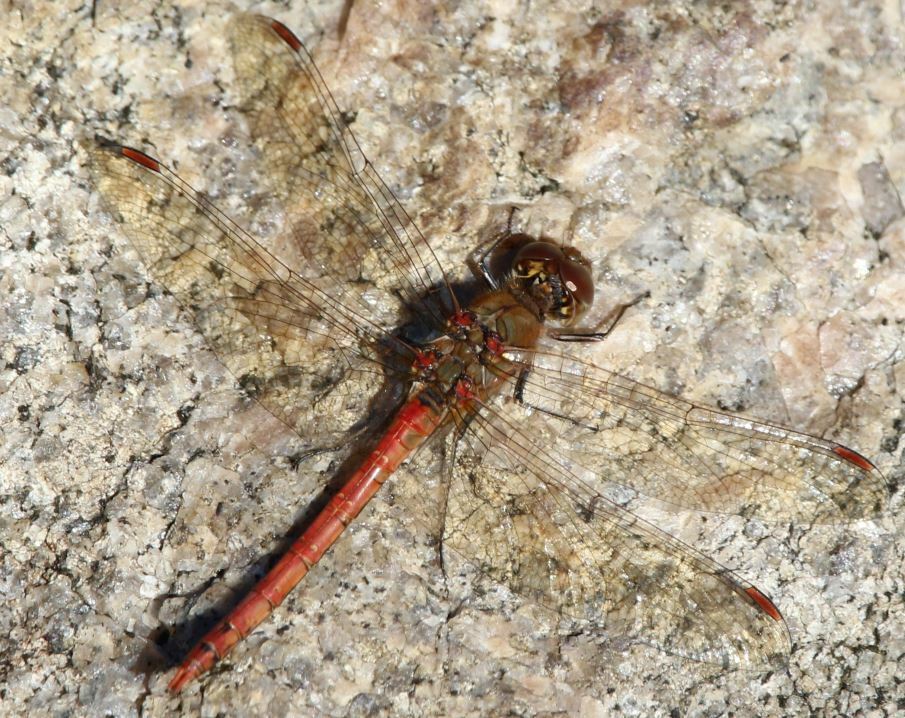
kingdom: Animalia
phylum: Arthropoda
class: Insecta
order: Odonata
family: Libellulidae
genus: Sympetrum
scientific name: Sympetrum striolatum
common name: Common darter
